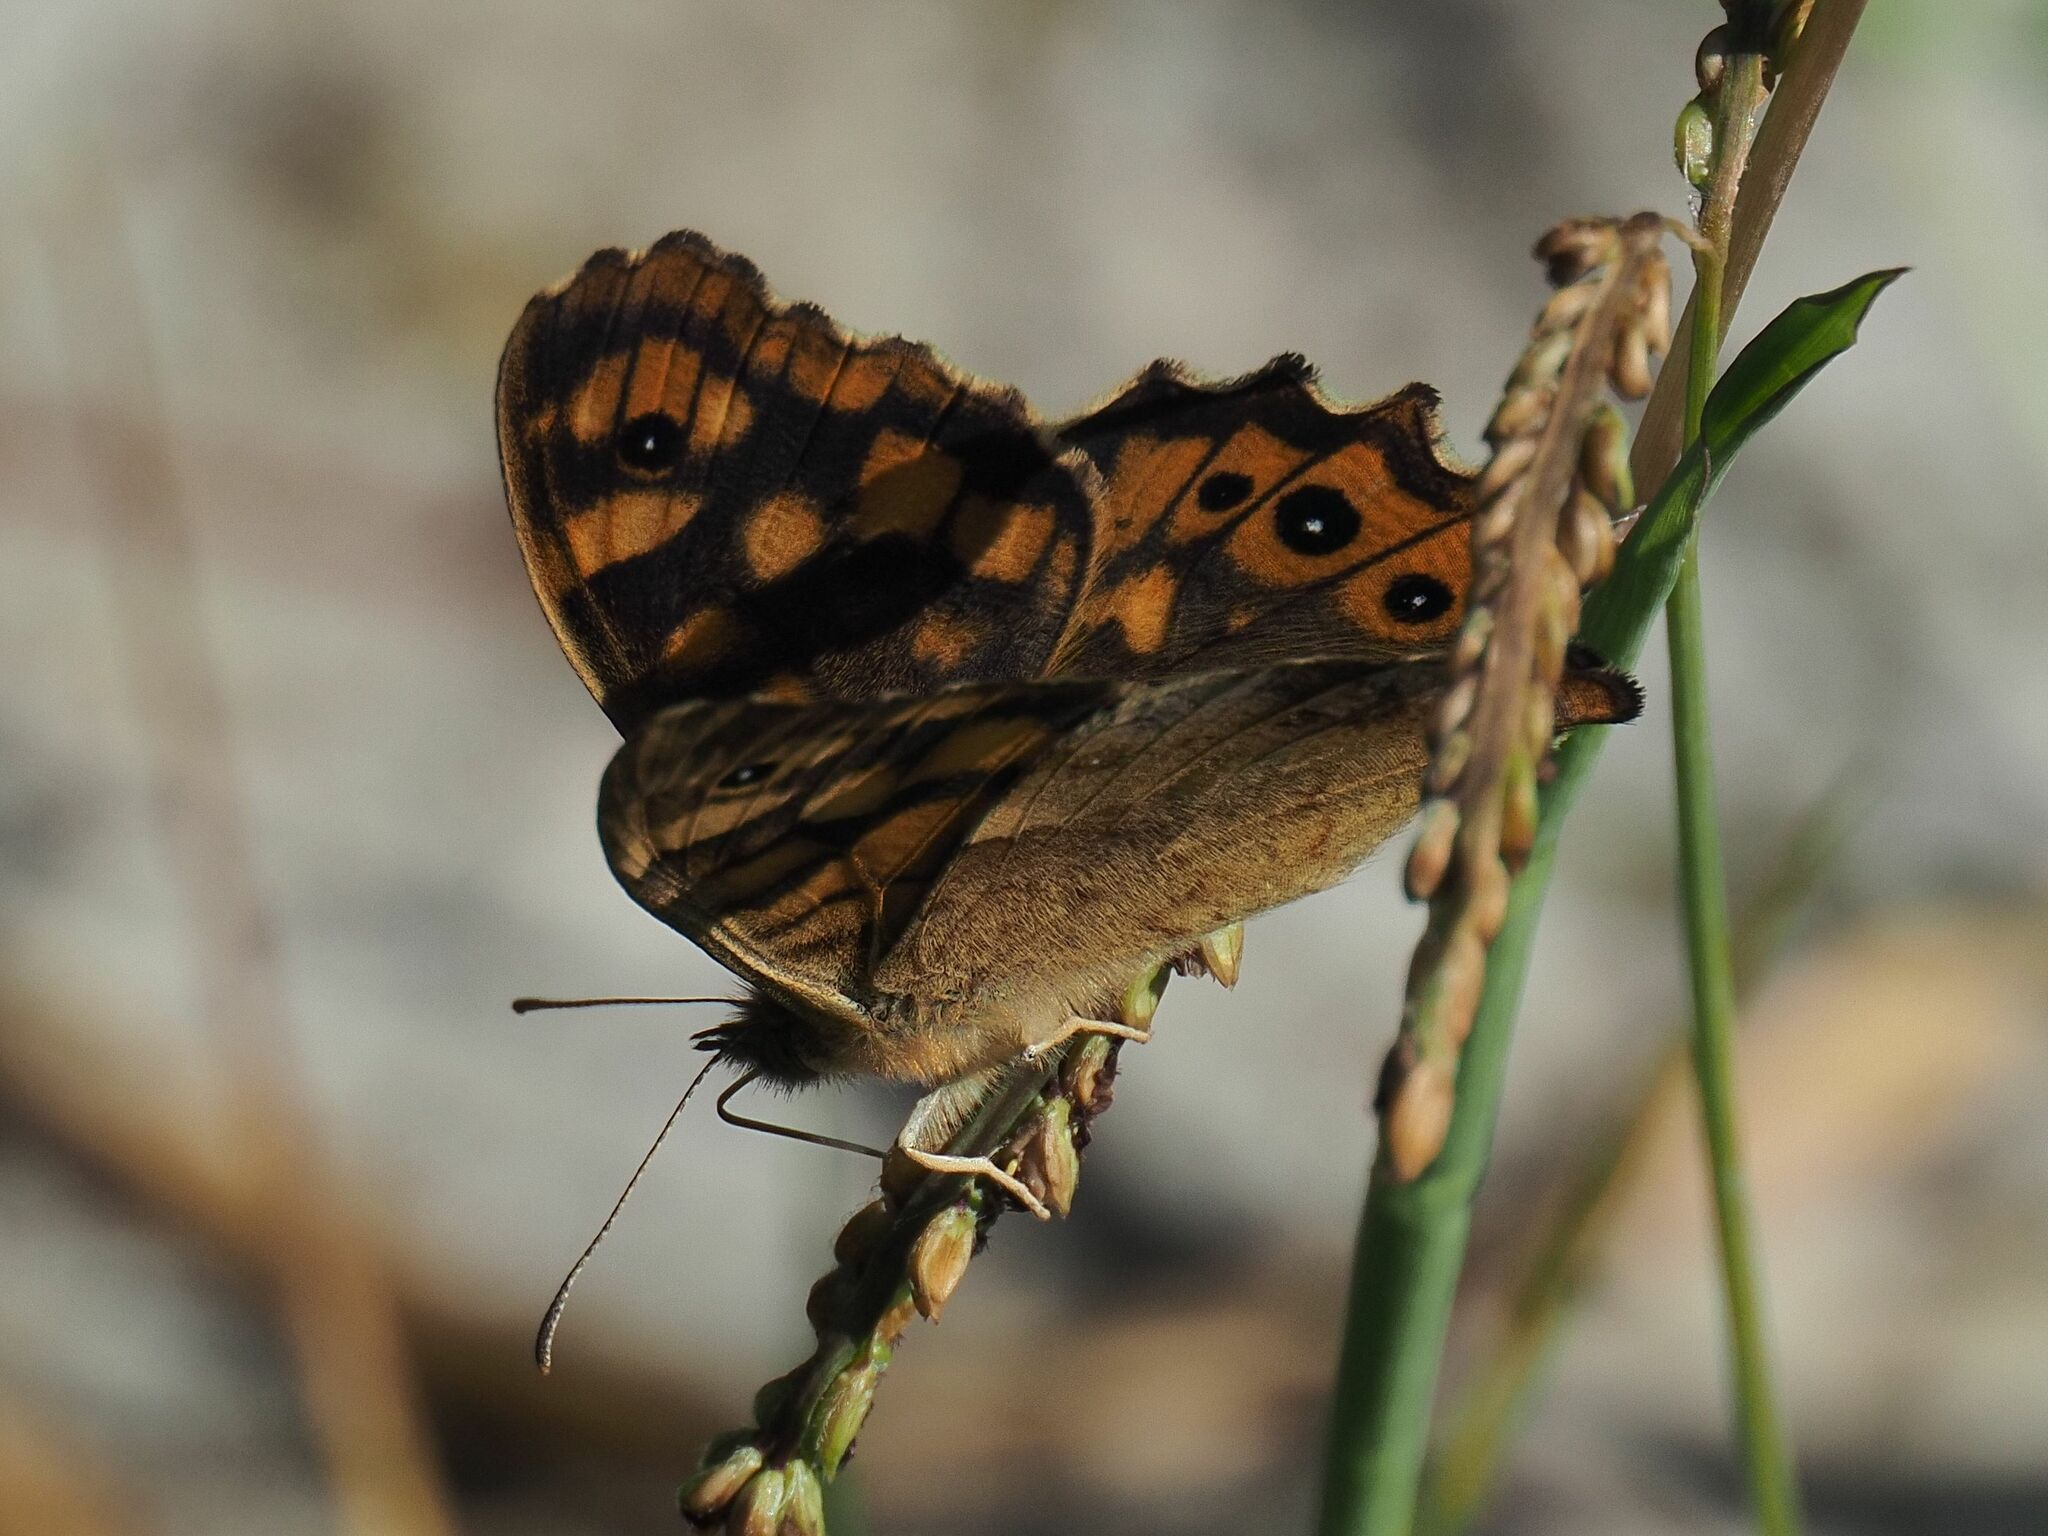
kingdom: Animalia
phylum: Arthropoda
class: Insecta
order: Lepidoptera
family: Nymphalidae
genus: Pararge
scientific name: Pararge aegeria
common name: Speckled wood
